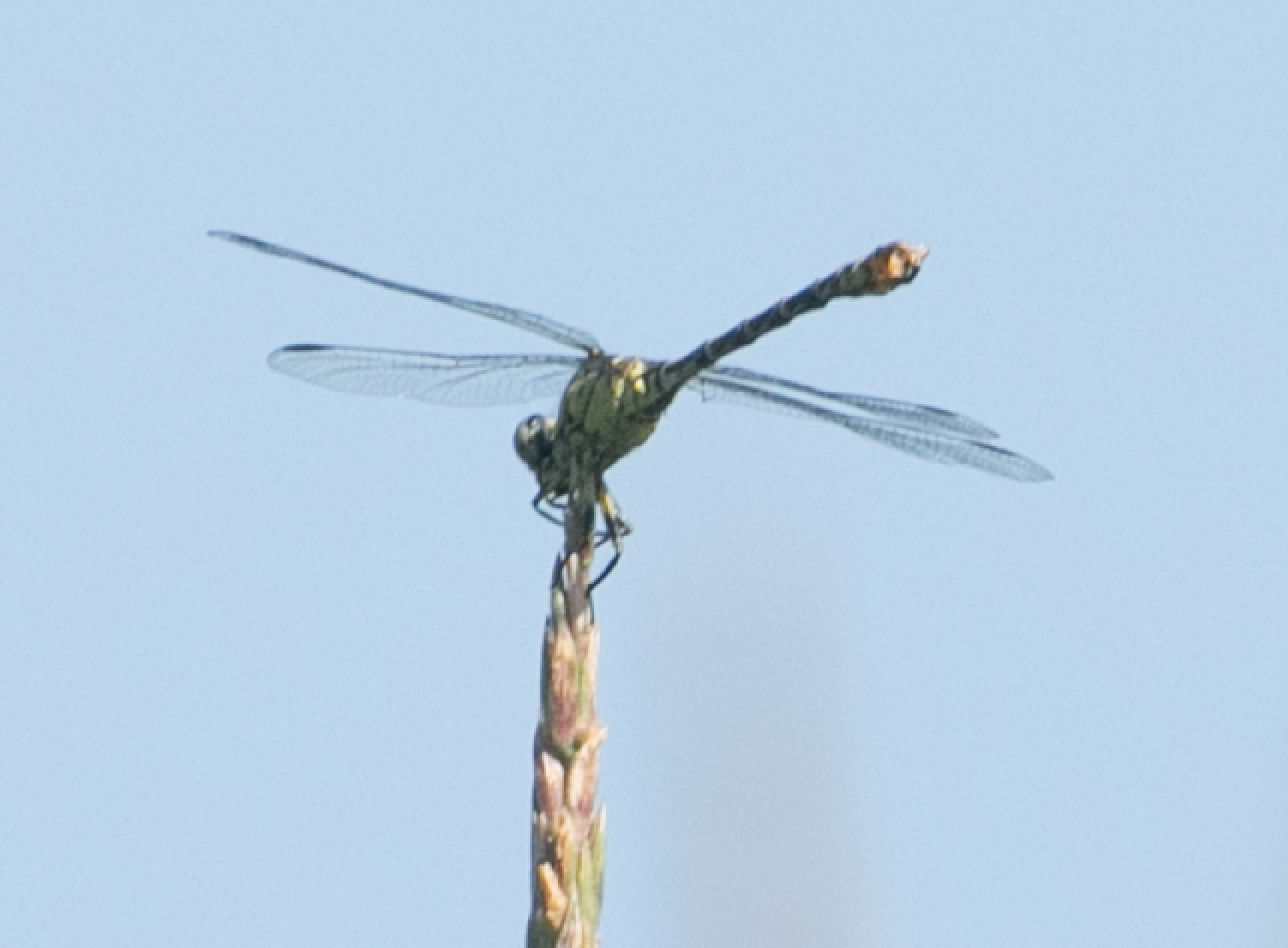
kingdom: Animalia
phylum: Arthropoda
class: Insecta
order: Odonata
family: Gomphidae
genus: Onychogomphus
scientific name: Onychogomphus forcipatus
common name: Small pincertail
